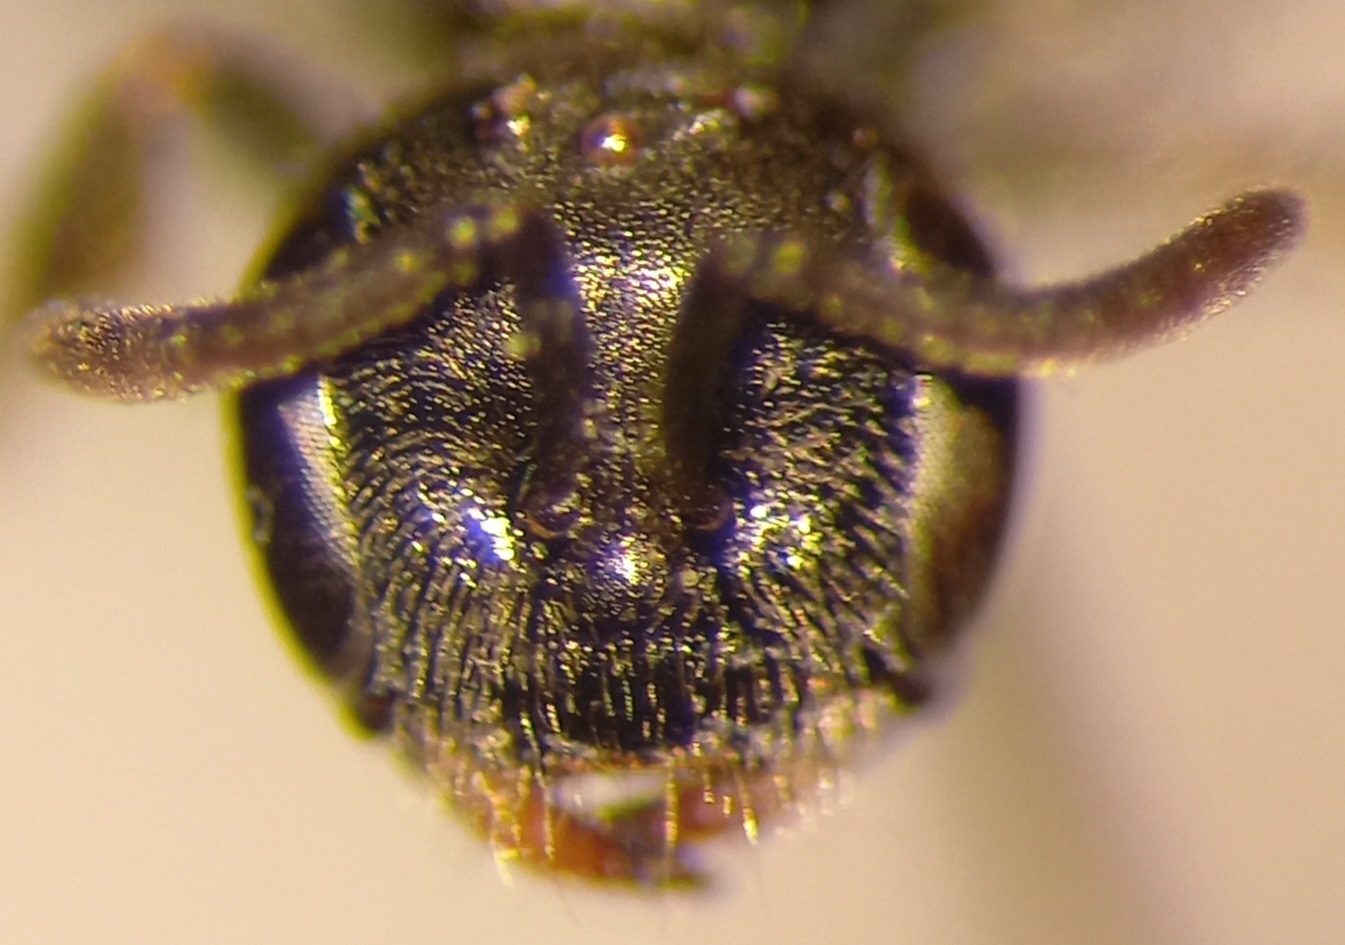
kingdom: Animalia
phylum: Arthropoda
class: Insecta
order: Hymenoptera
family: Halictidae
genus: Lasioglossum
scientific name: Lasioglossum politum
